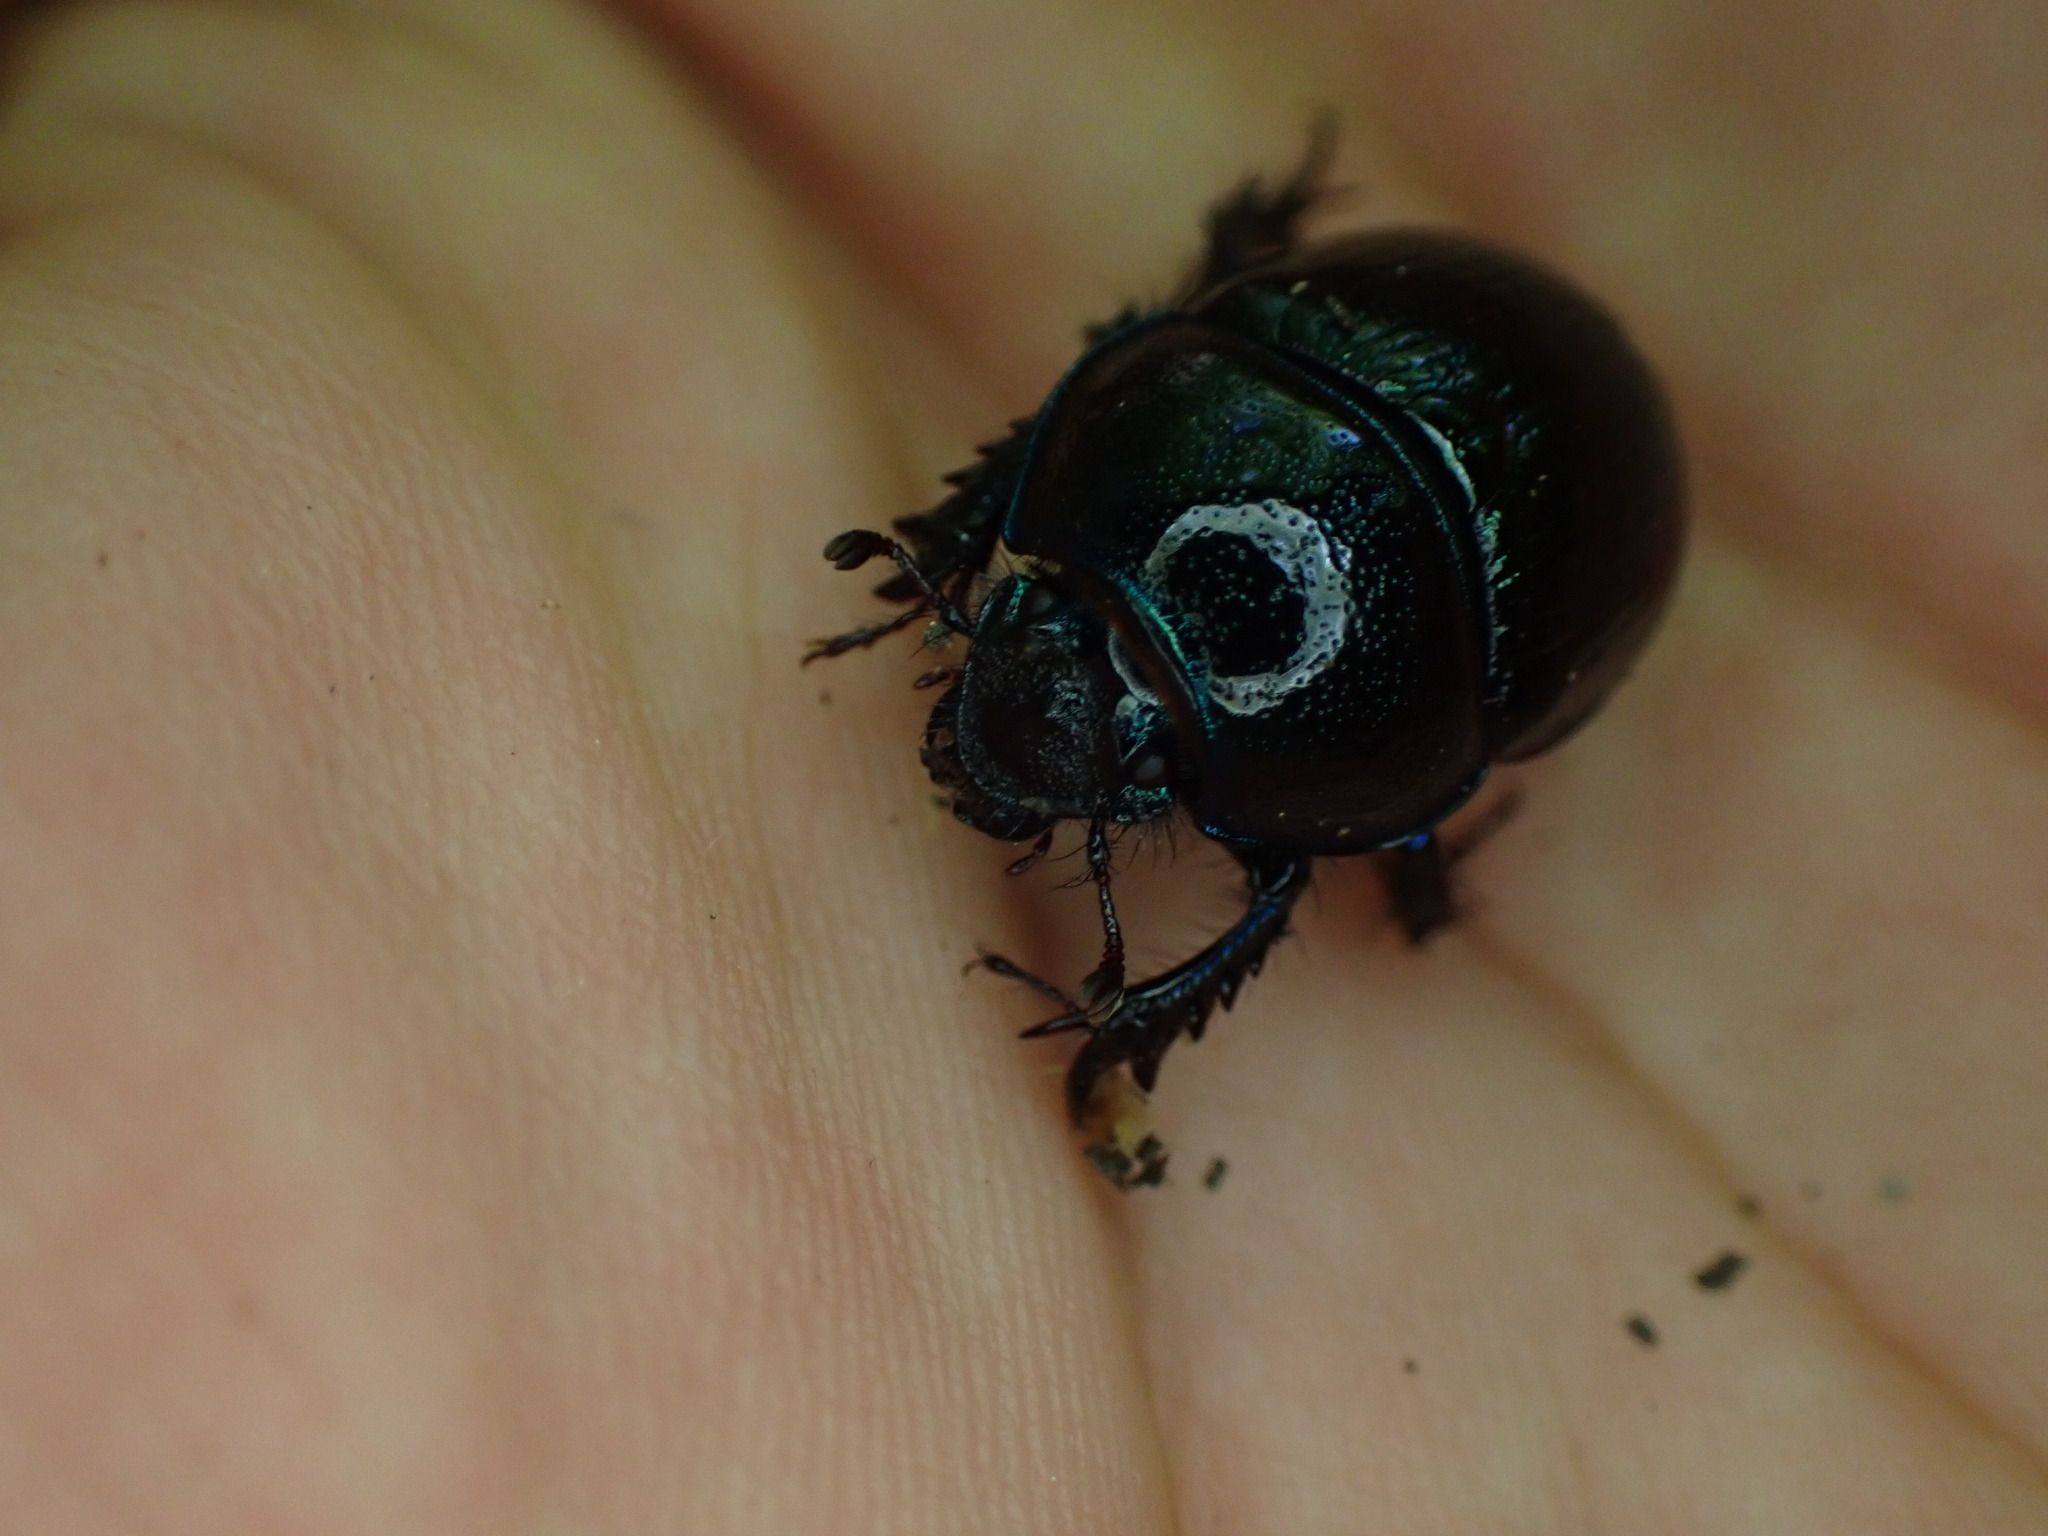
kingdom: Animalia
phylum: Arthropoda
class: Insecta
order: Coleoptera
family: Geotrupidae
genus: Anoplotrupes
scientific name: Anoplotrupes stercorosus
